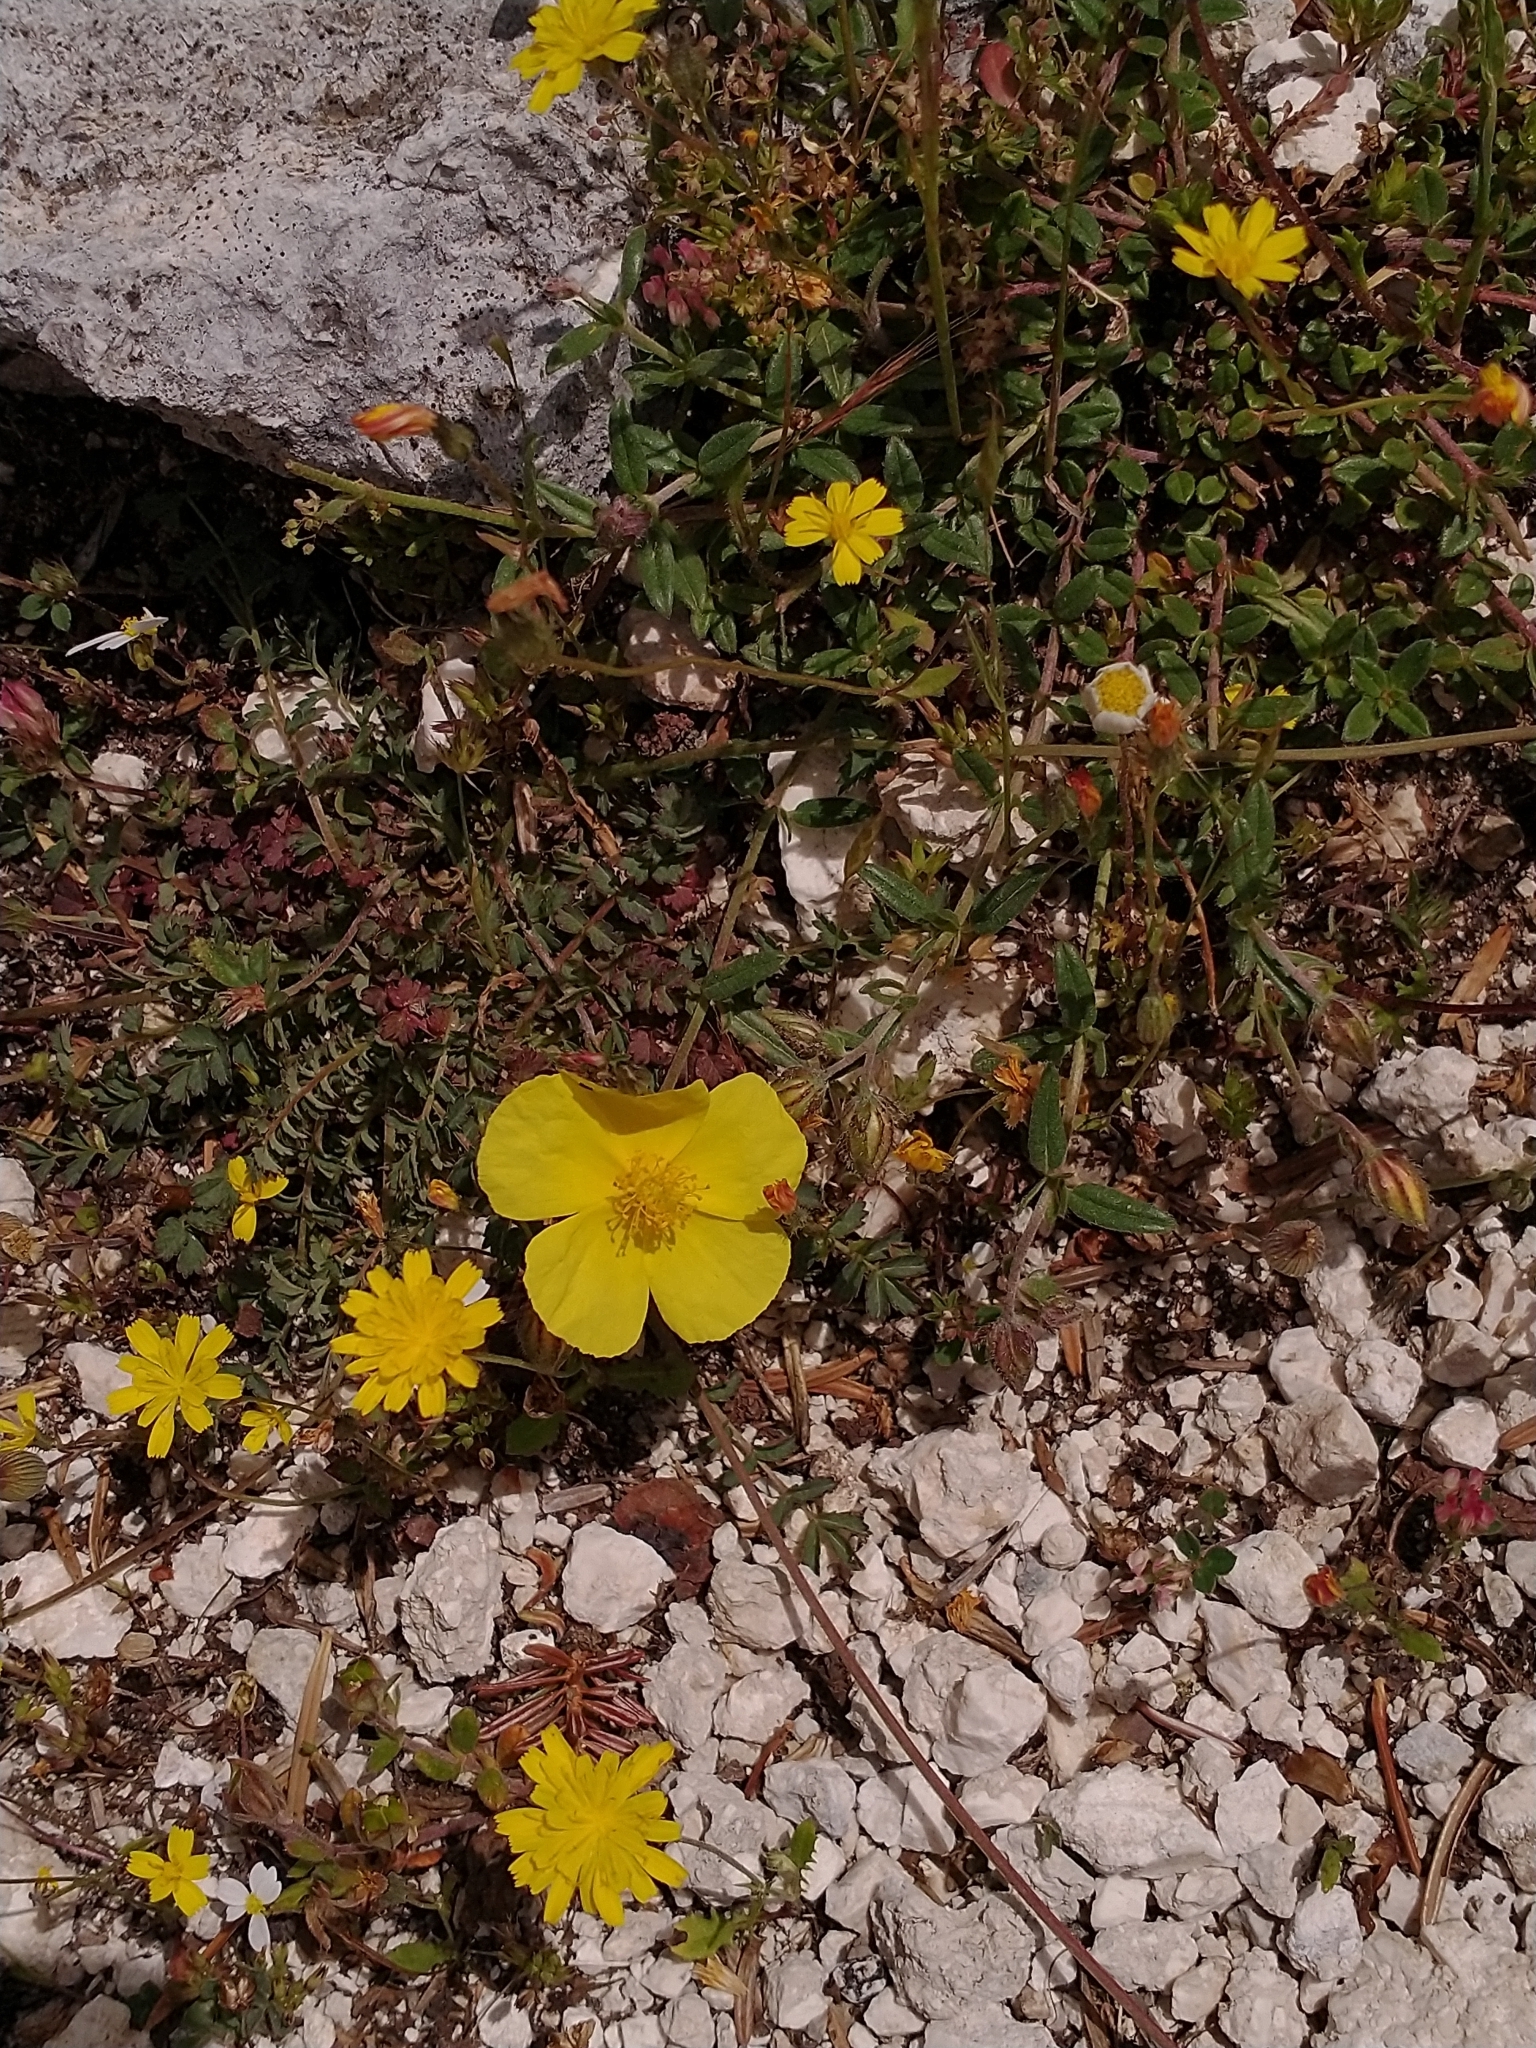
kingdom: Plantae
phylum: Tracheophyta
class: Magnoliopsida
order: Malvales
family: Cistaceae
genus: Helianthemum
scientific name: Helianthemum nummularium
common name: Common rock-rose
